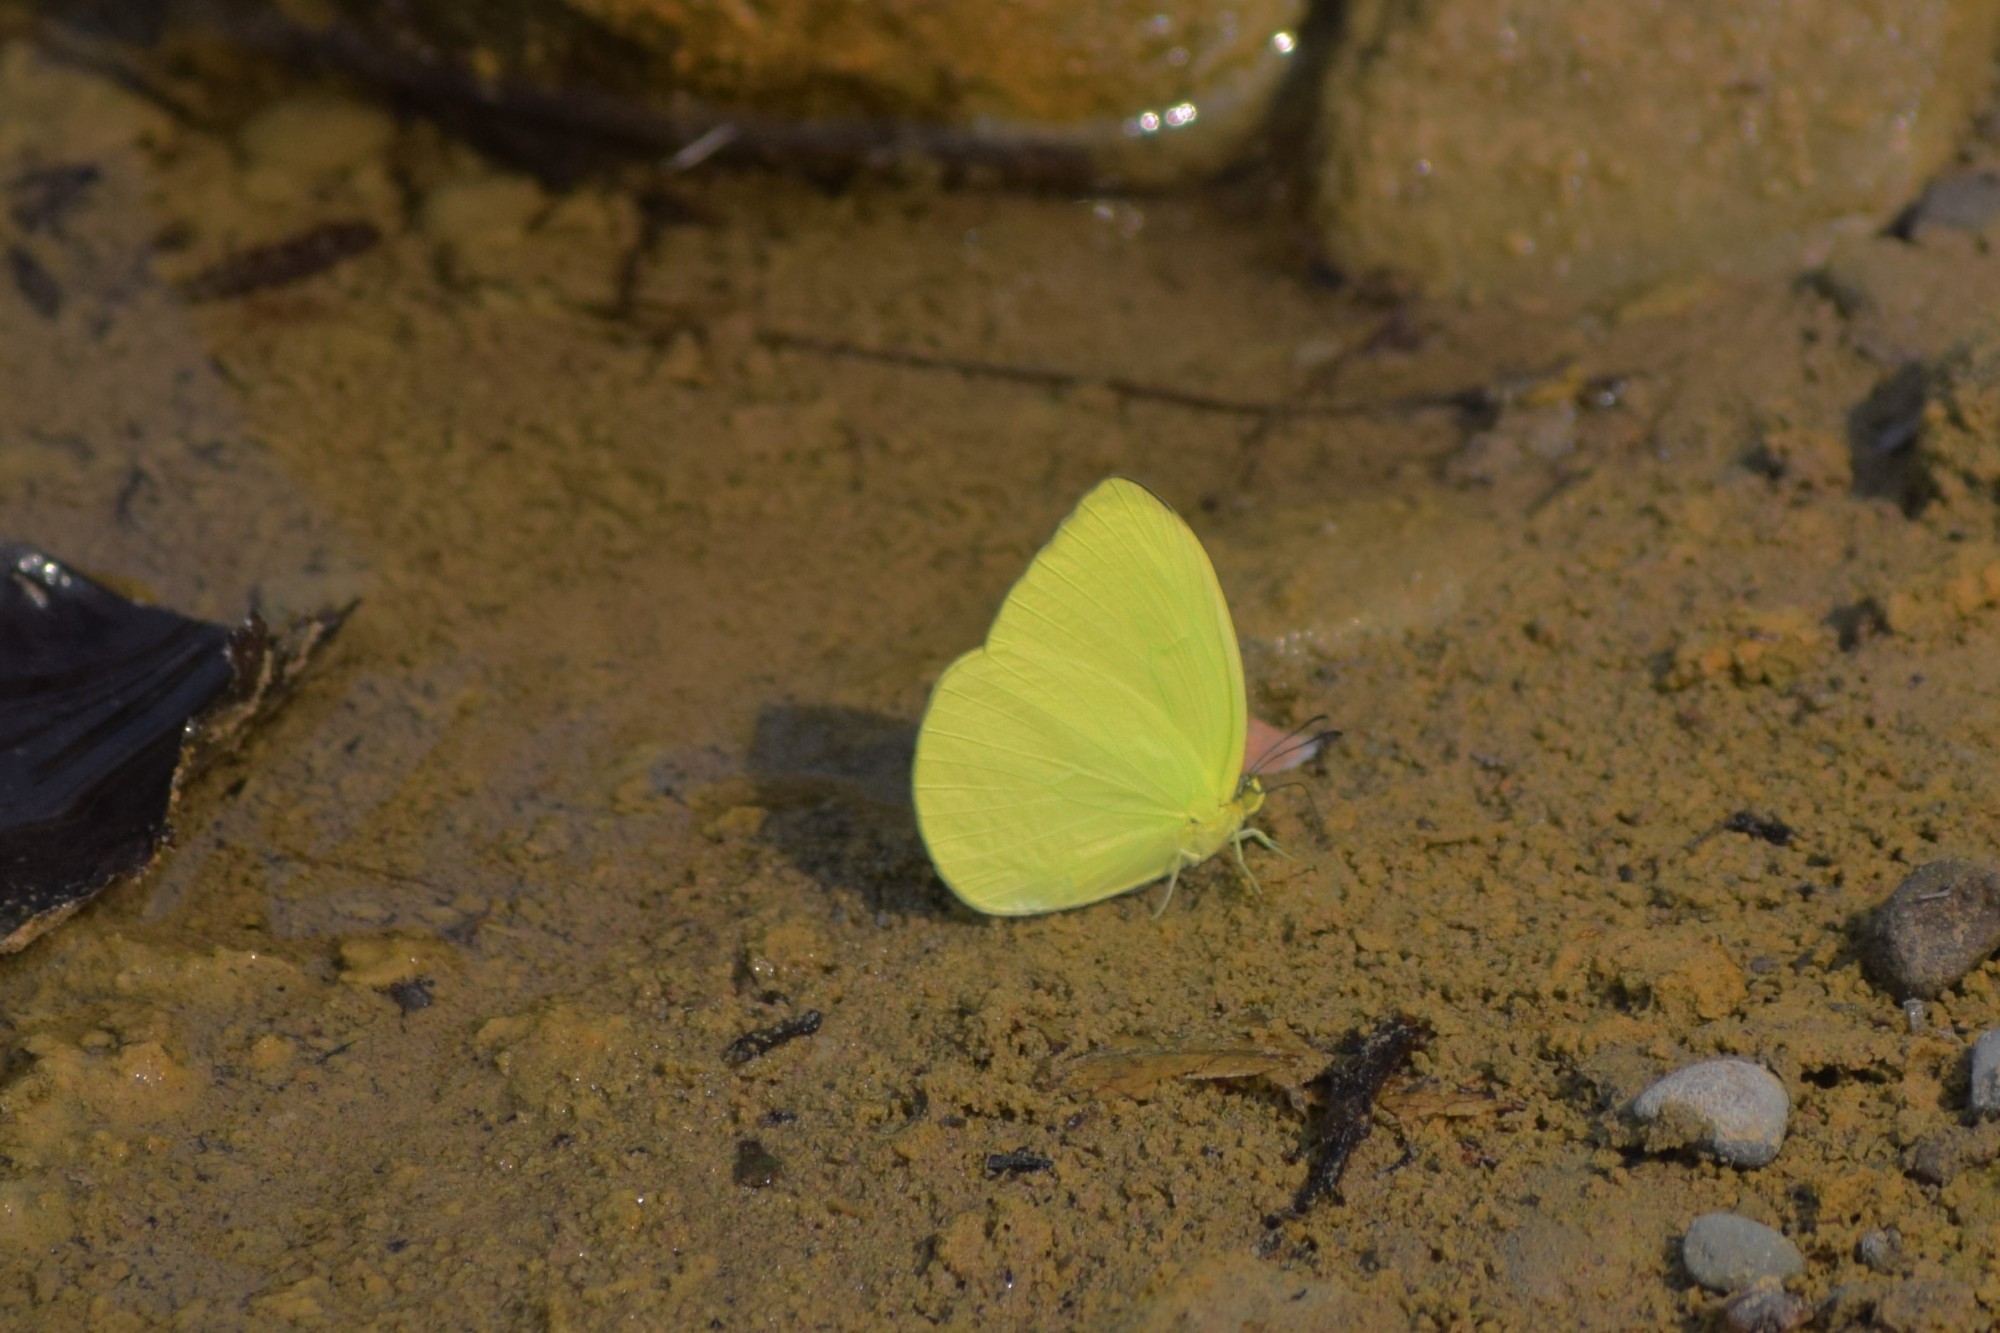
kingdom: Animalia
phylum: Arthropoda
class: Insecta
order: Lepidoptera
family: Pieridae
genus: Gandaca
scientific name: Gandaca harina
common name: Tree yellow
